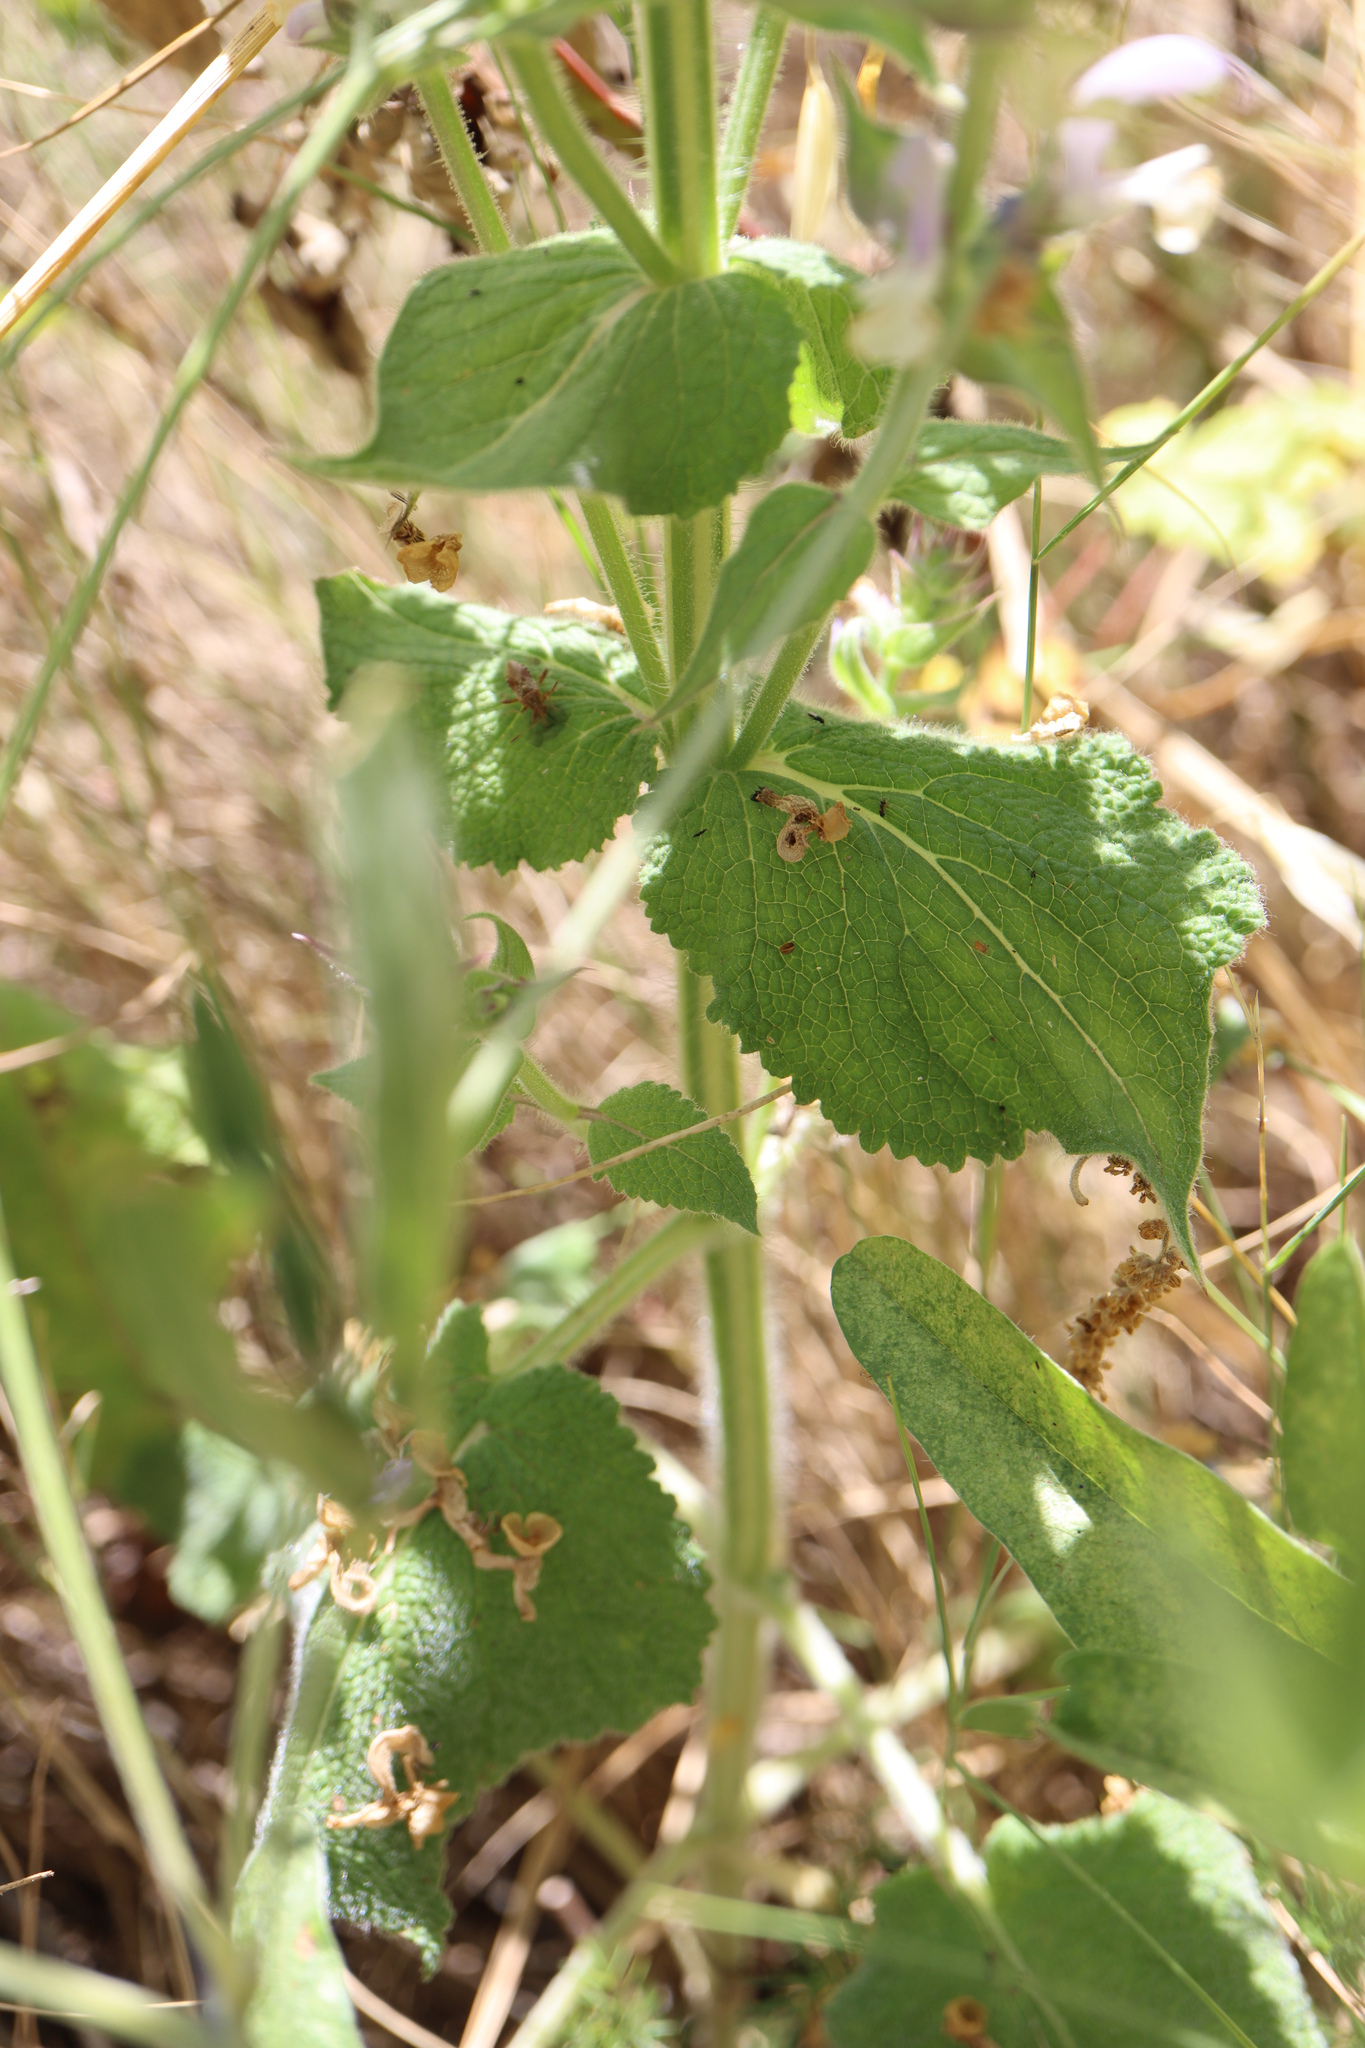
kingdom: Plantae
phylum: Tracheophyta
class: Magnoliopsida
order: Lamiales
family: Lamiaceae
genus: Salvia
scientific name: Salvia sclarea
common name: Clary
